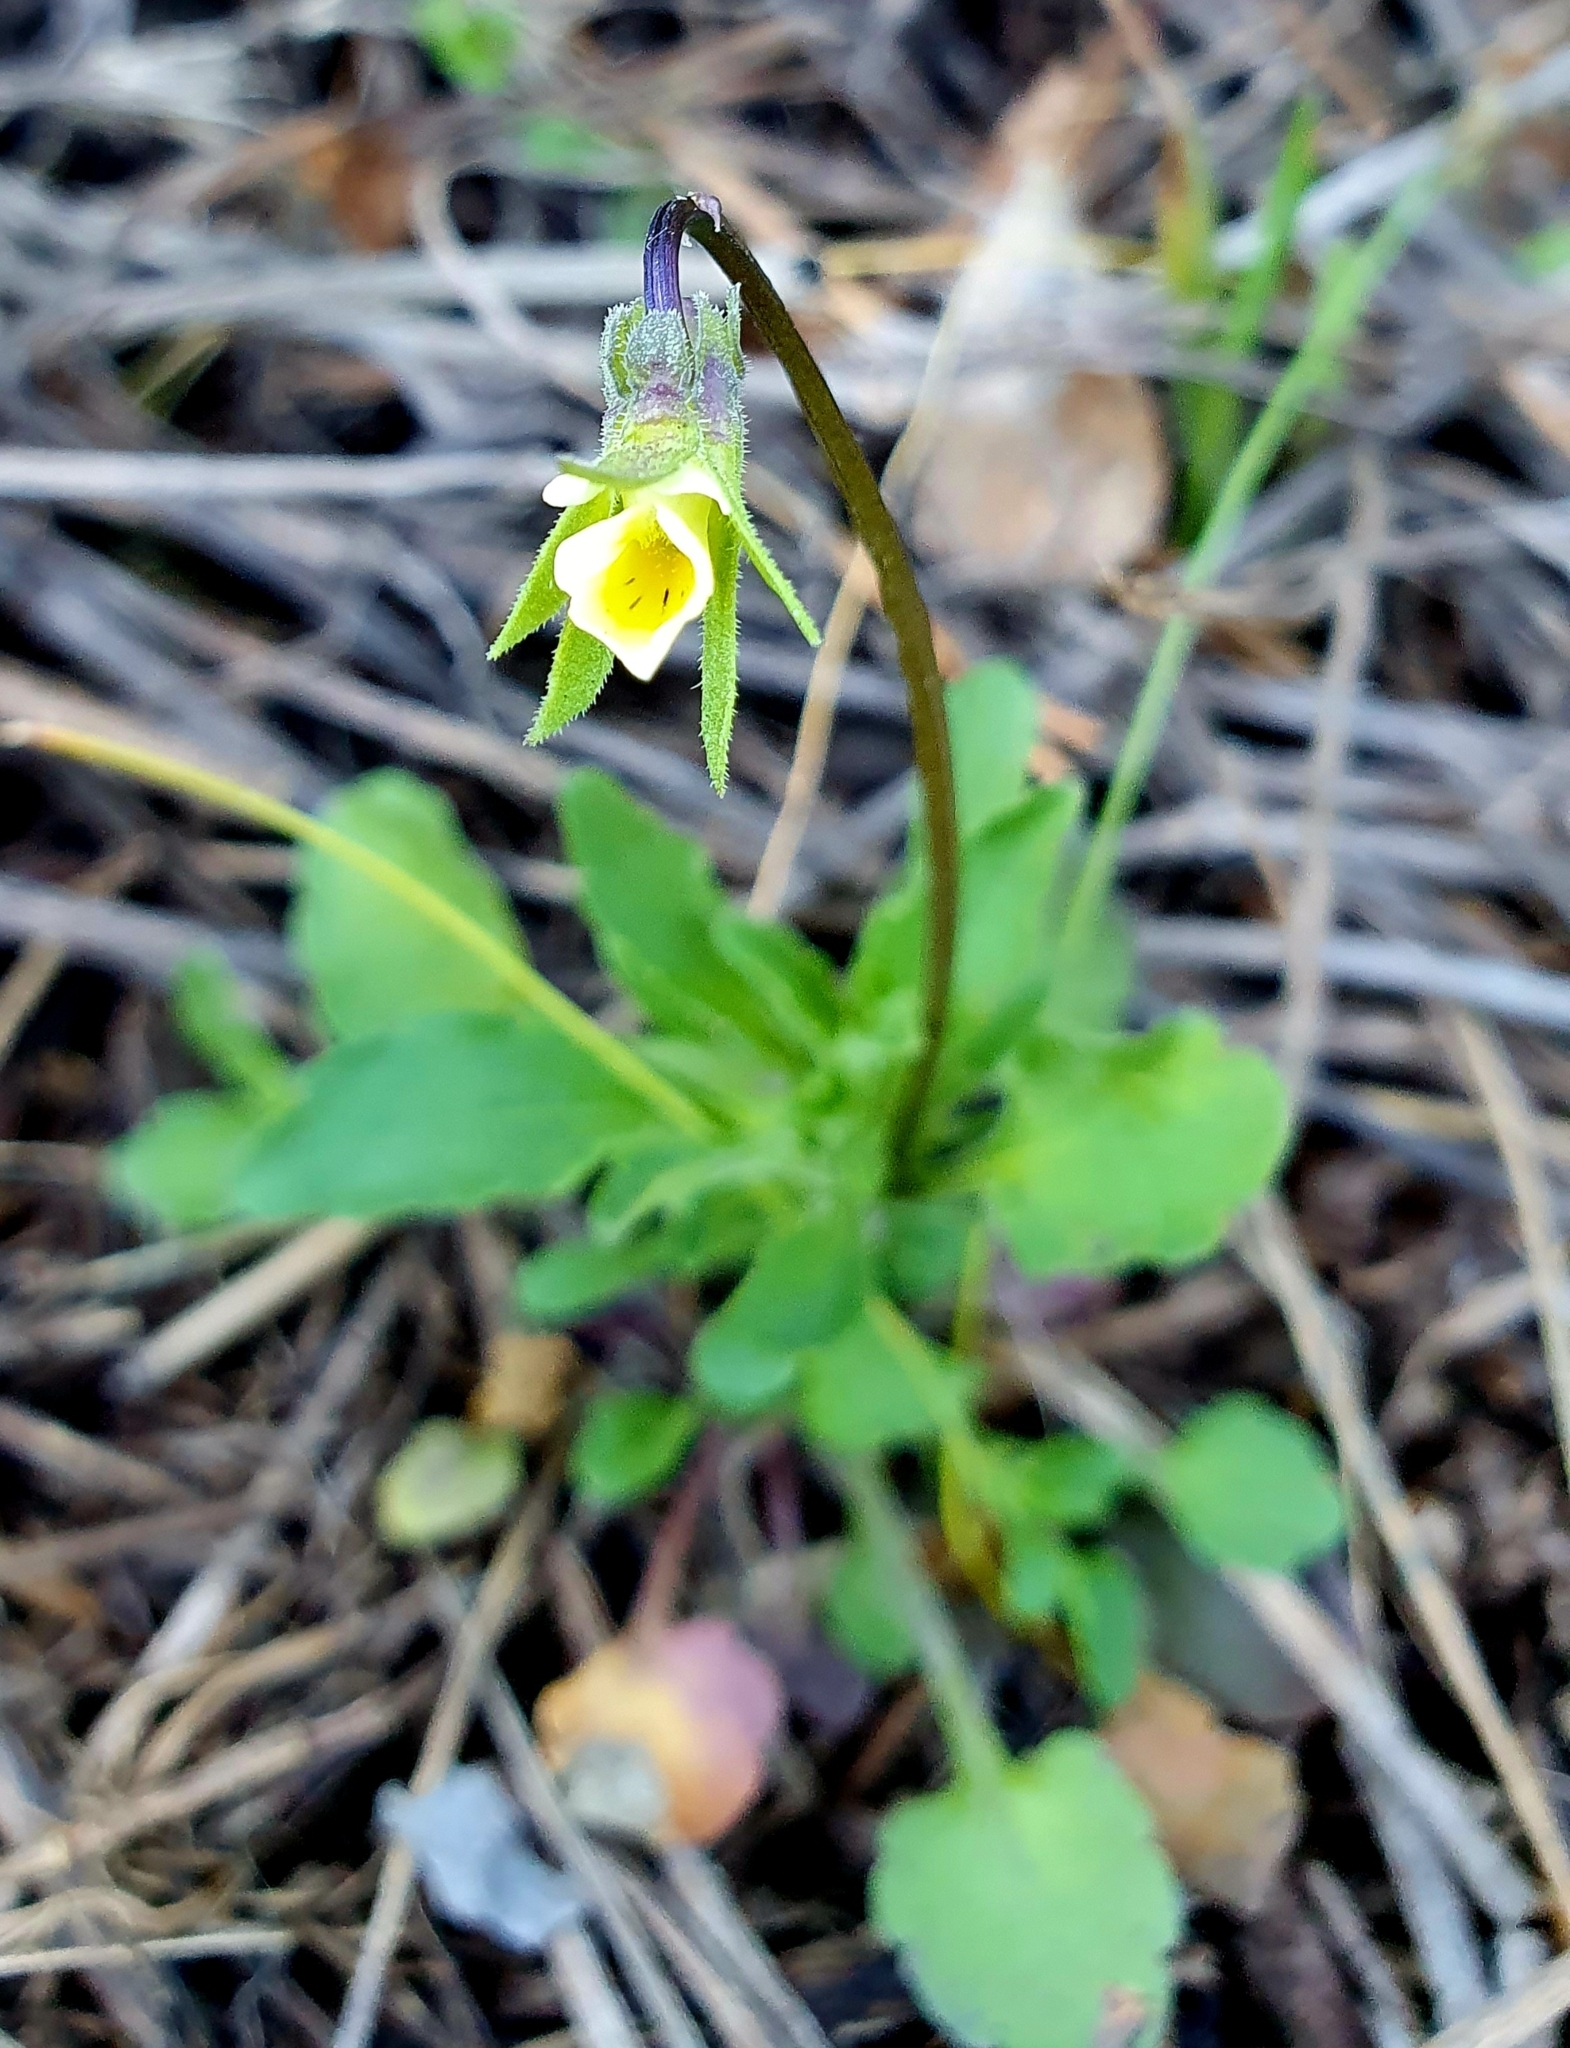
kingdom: Plantae
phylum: Tracheophyta
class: Magnoliopsida
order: Malpighiales
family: Violaceae
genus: Viola
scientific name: Viola arvensis
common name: Field pansy
